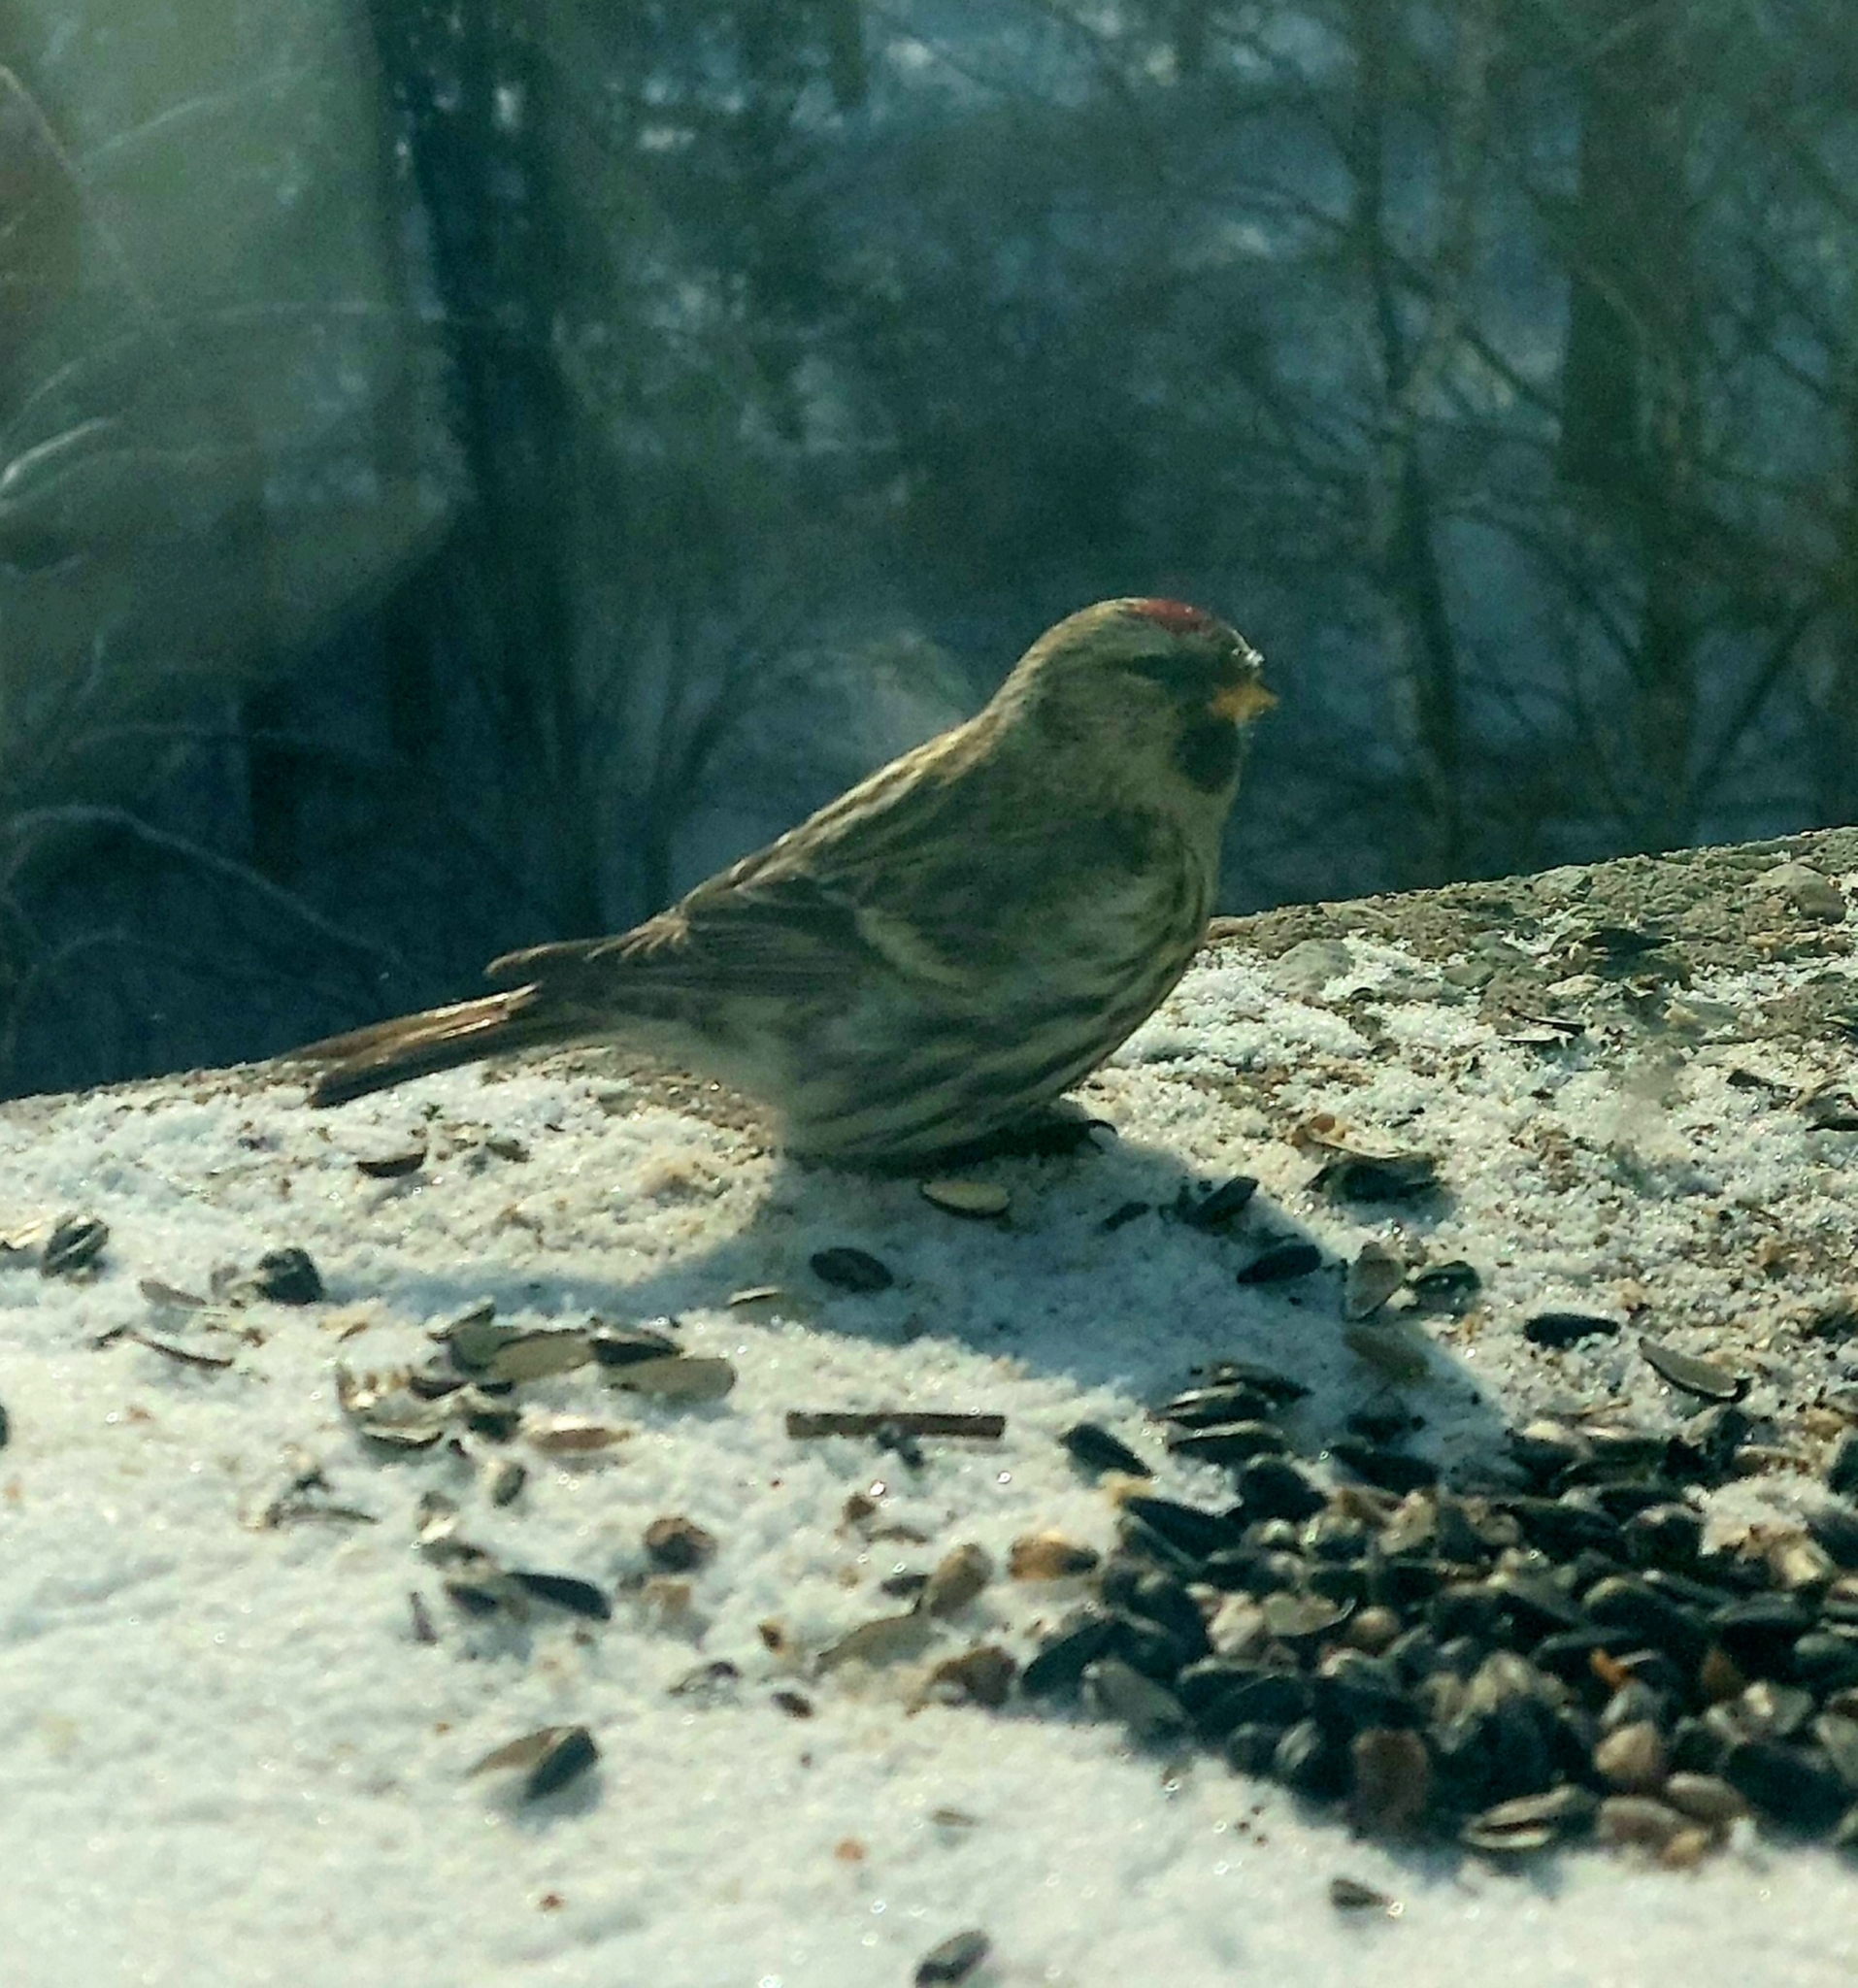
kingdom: Animalia
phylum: Chordata
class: Aves
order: Passeriformes
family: Fringillidae
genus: Acanthis
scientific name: Acanthis flammea
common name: Common redpoll
